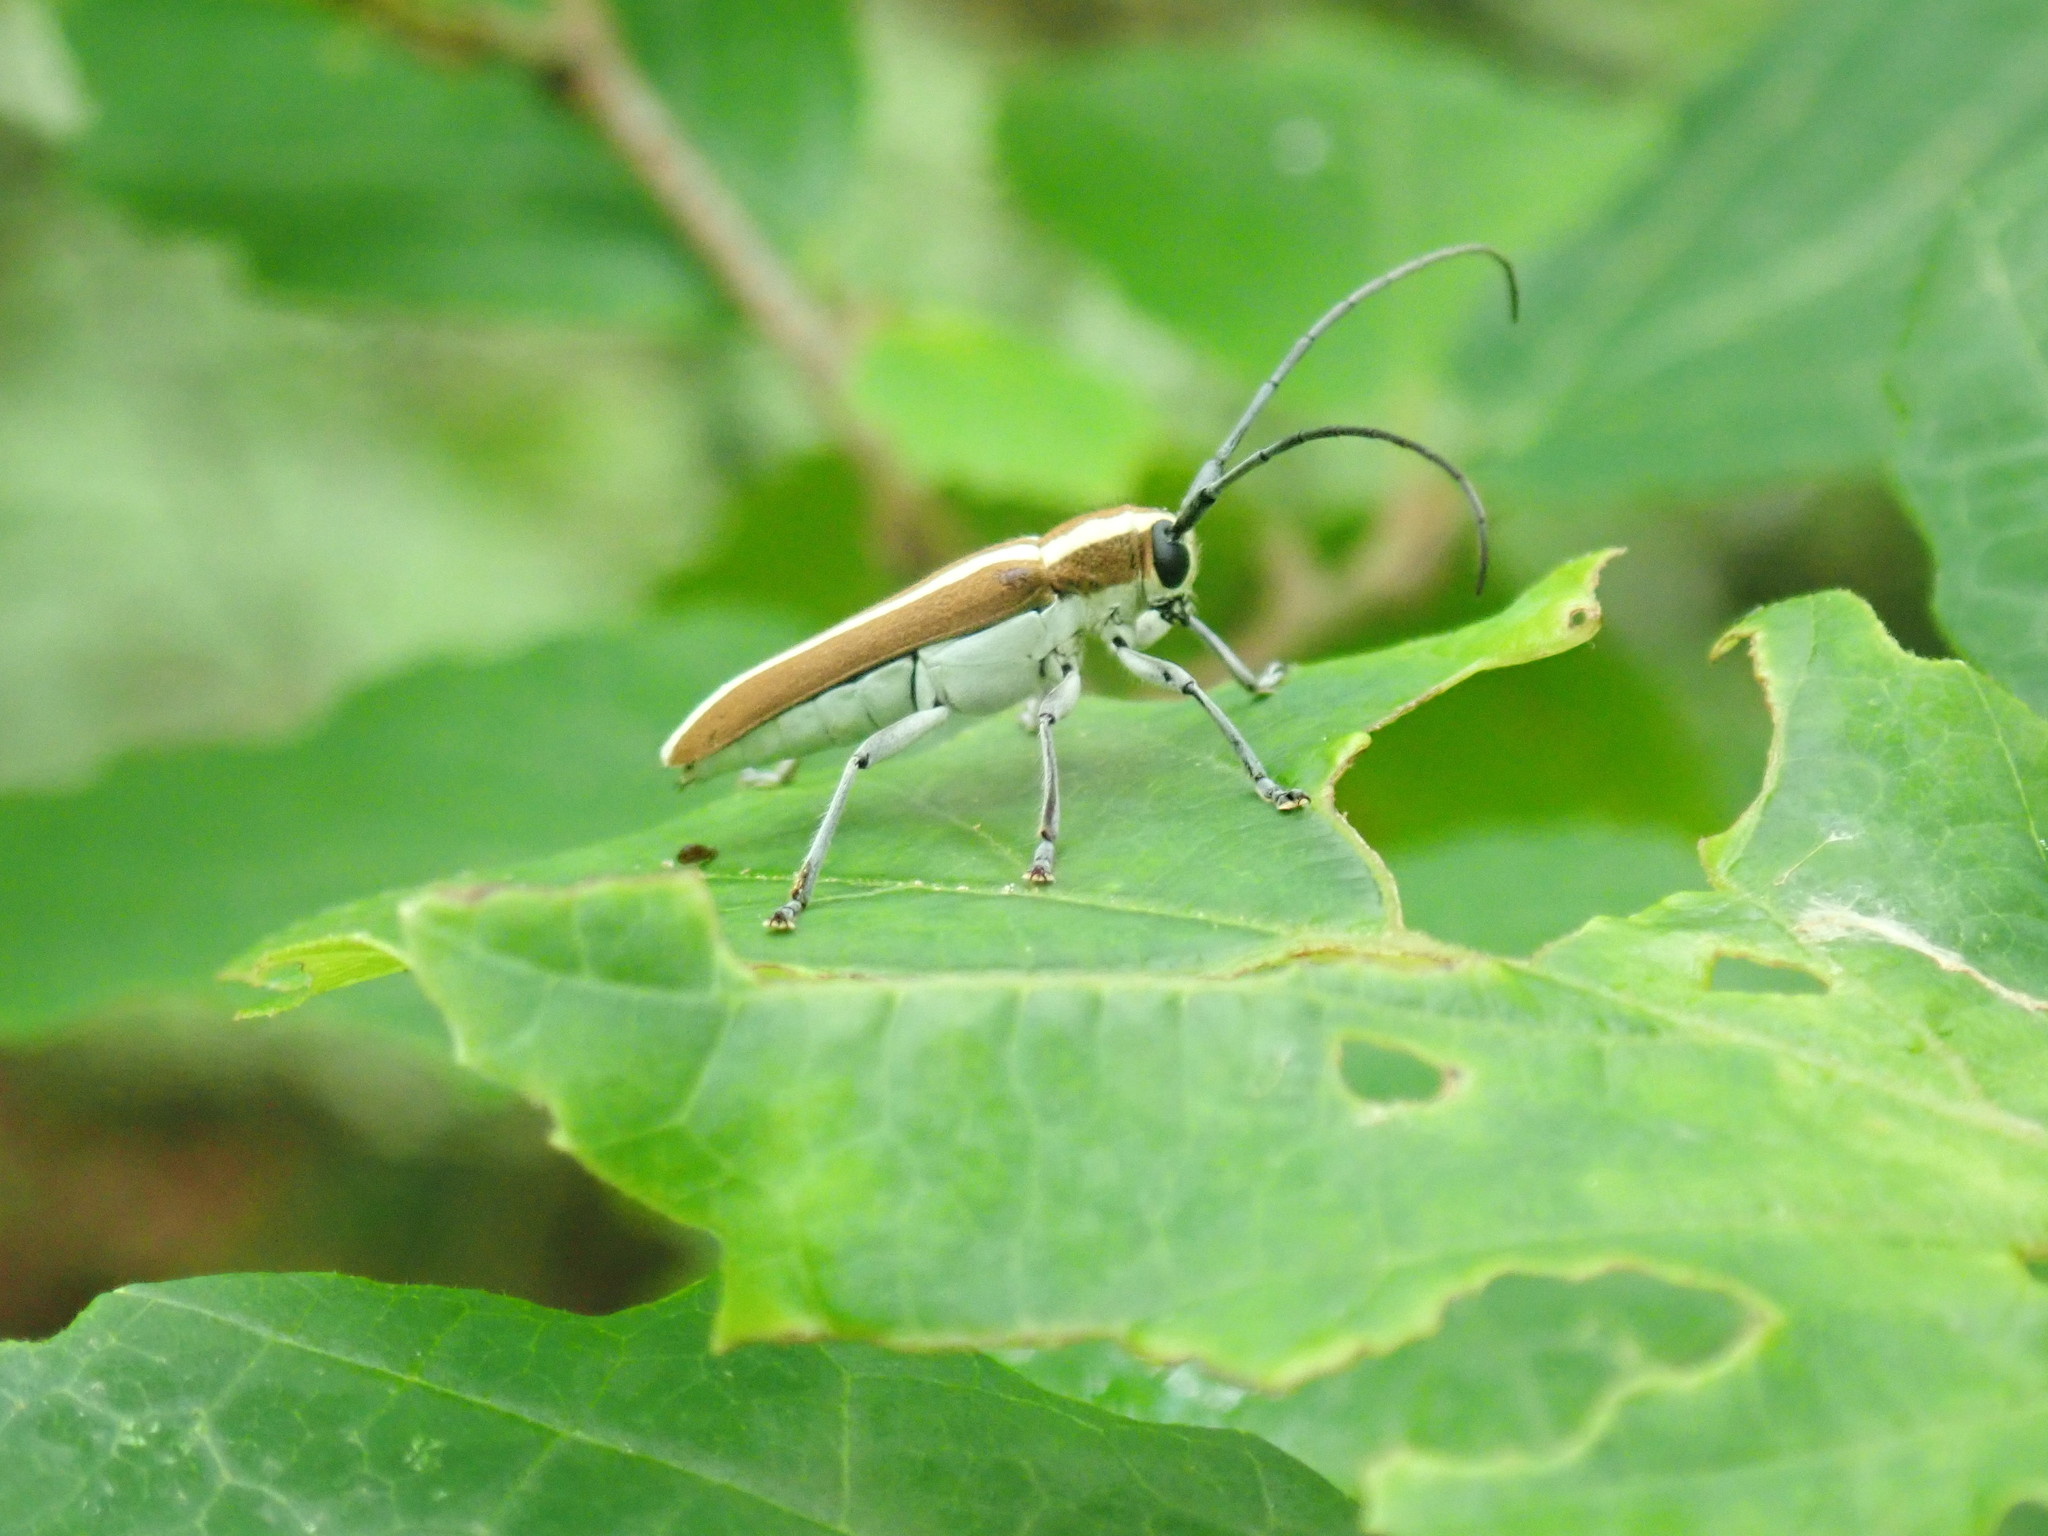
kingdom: Animalia
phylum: Arthropoda
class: Insecta
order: Coleoptera
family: Cerambycidae
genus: Saperda
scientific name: Saperda candida
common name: Round-headed borer
